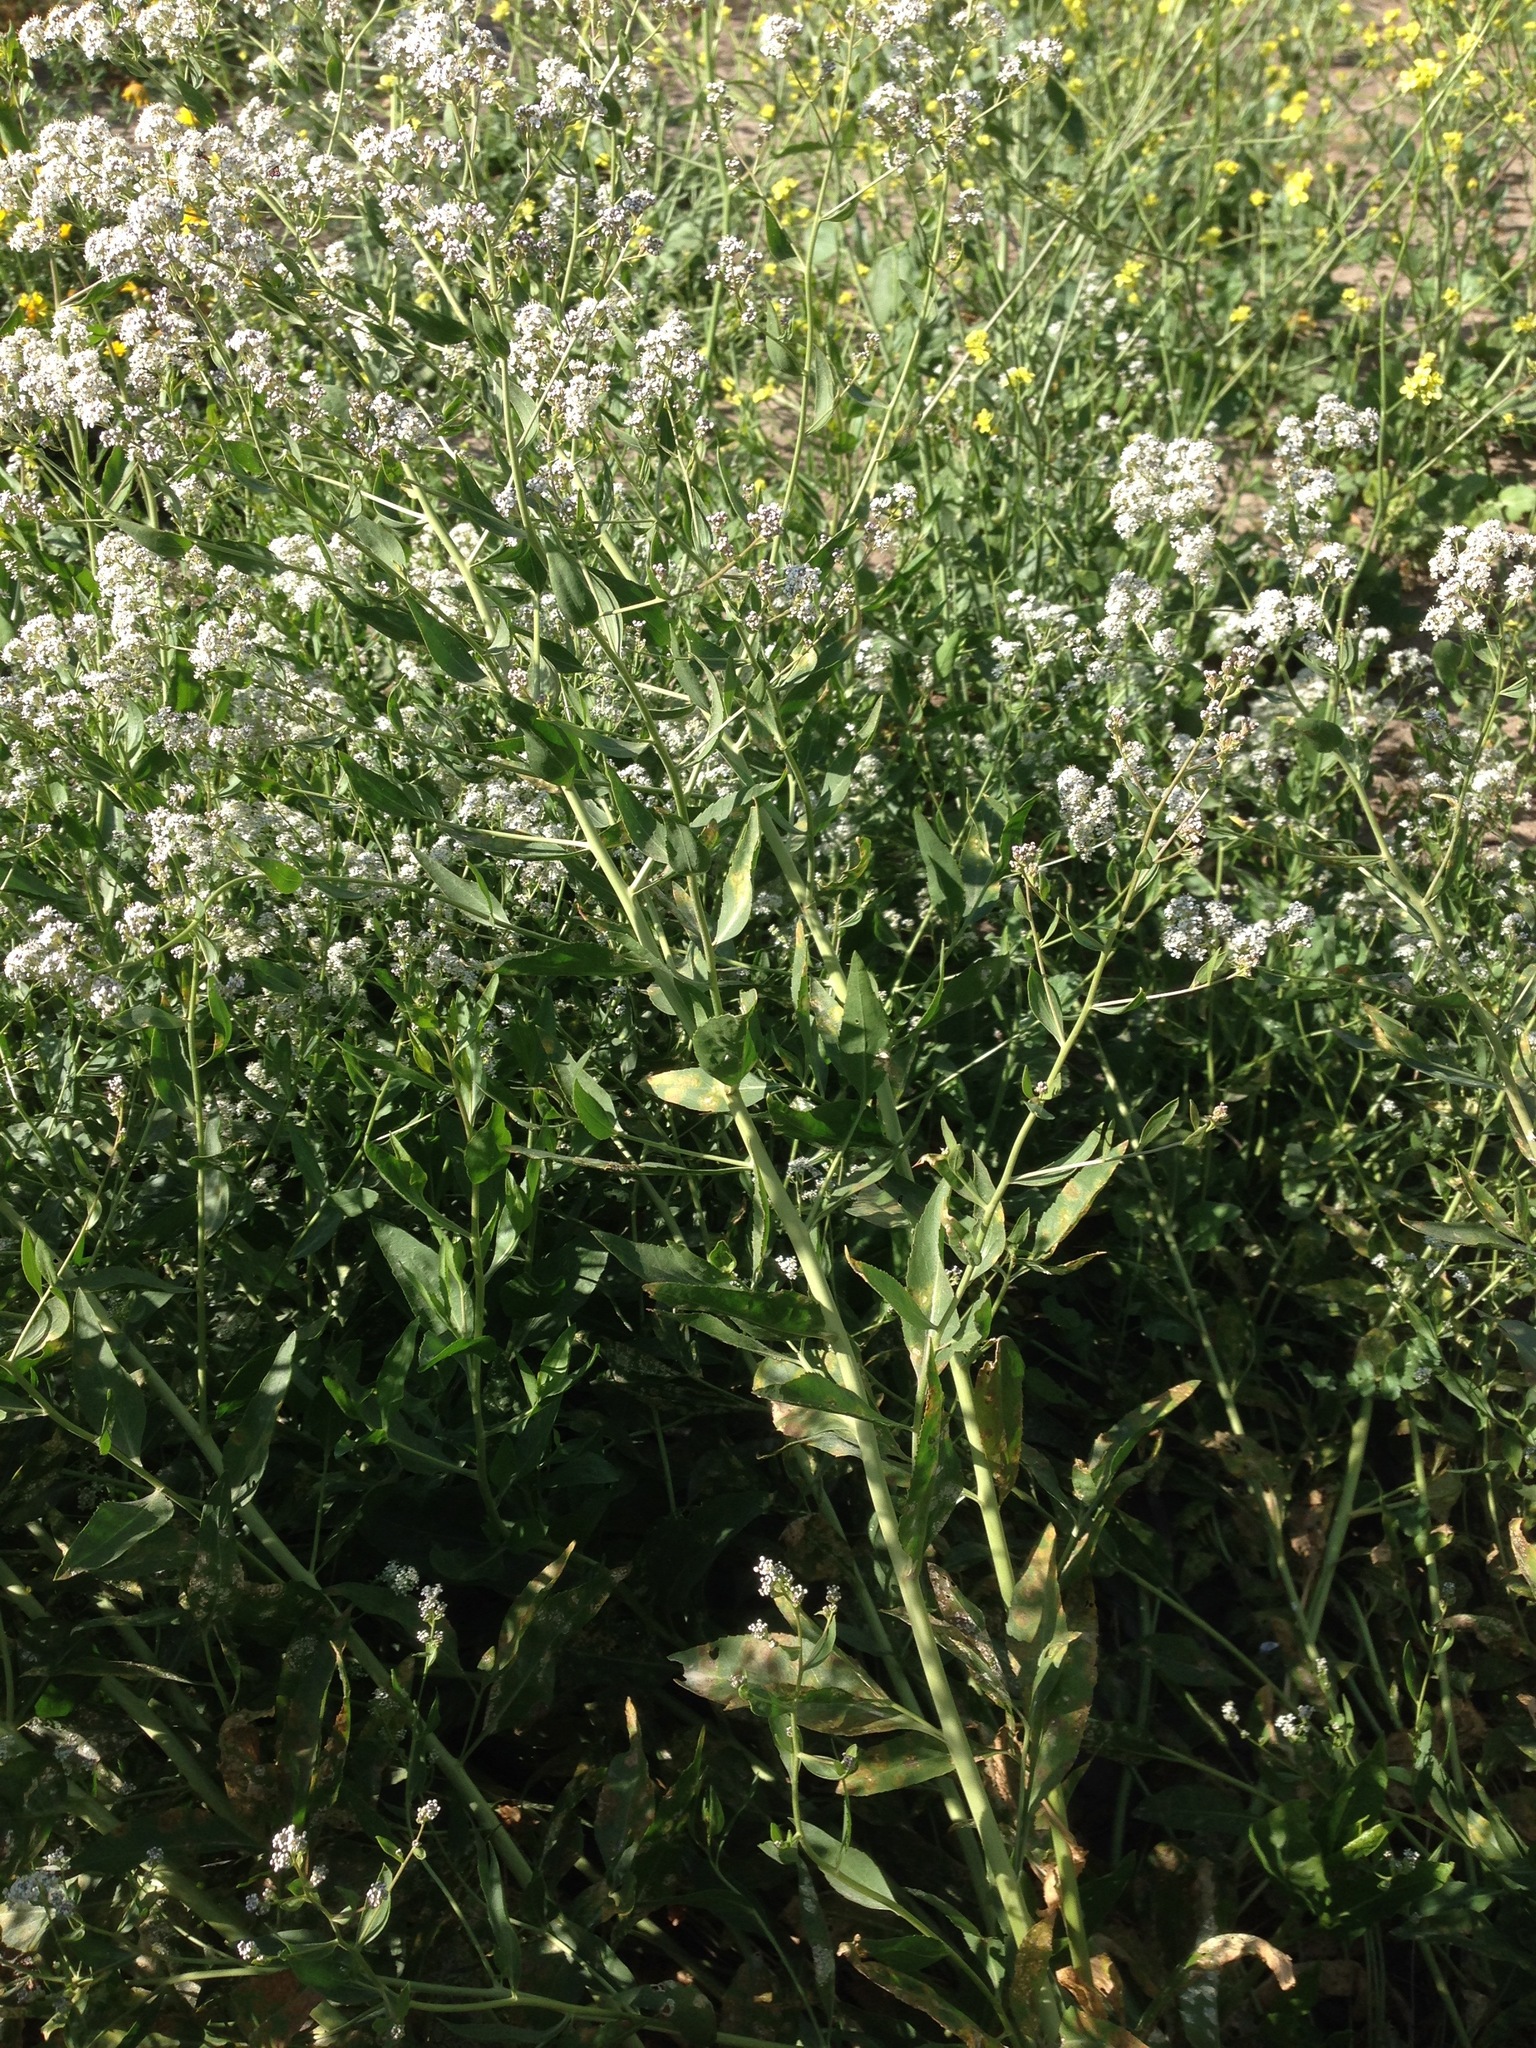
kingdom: Plantae
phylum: Tracheophyta
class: Magnoliopsida
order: Brassicales
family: Brassicaceae
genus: Lepidium
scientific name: Lepidium latifolium
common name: Dittander
